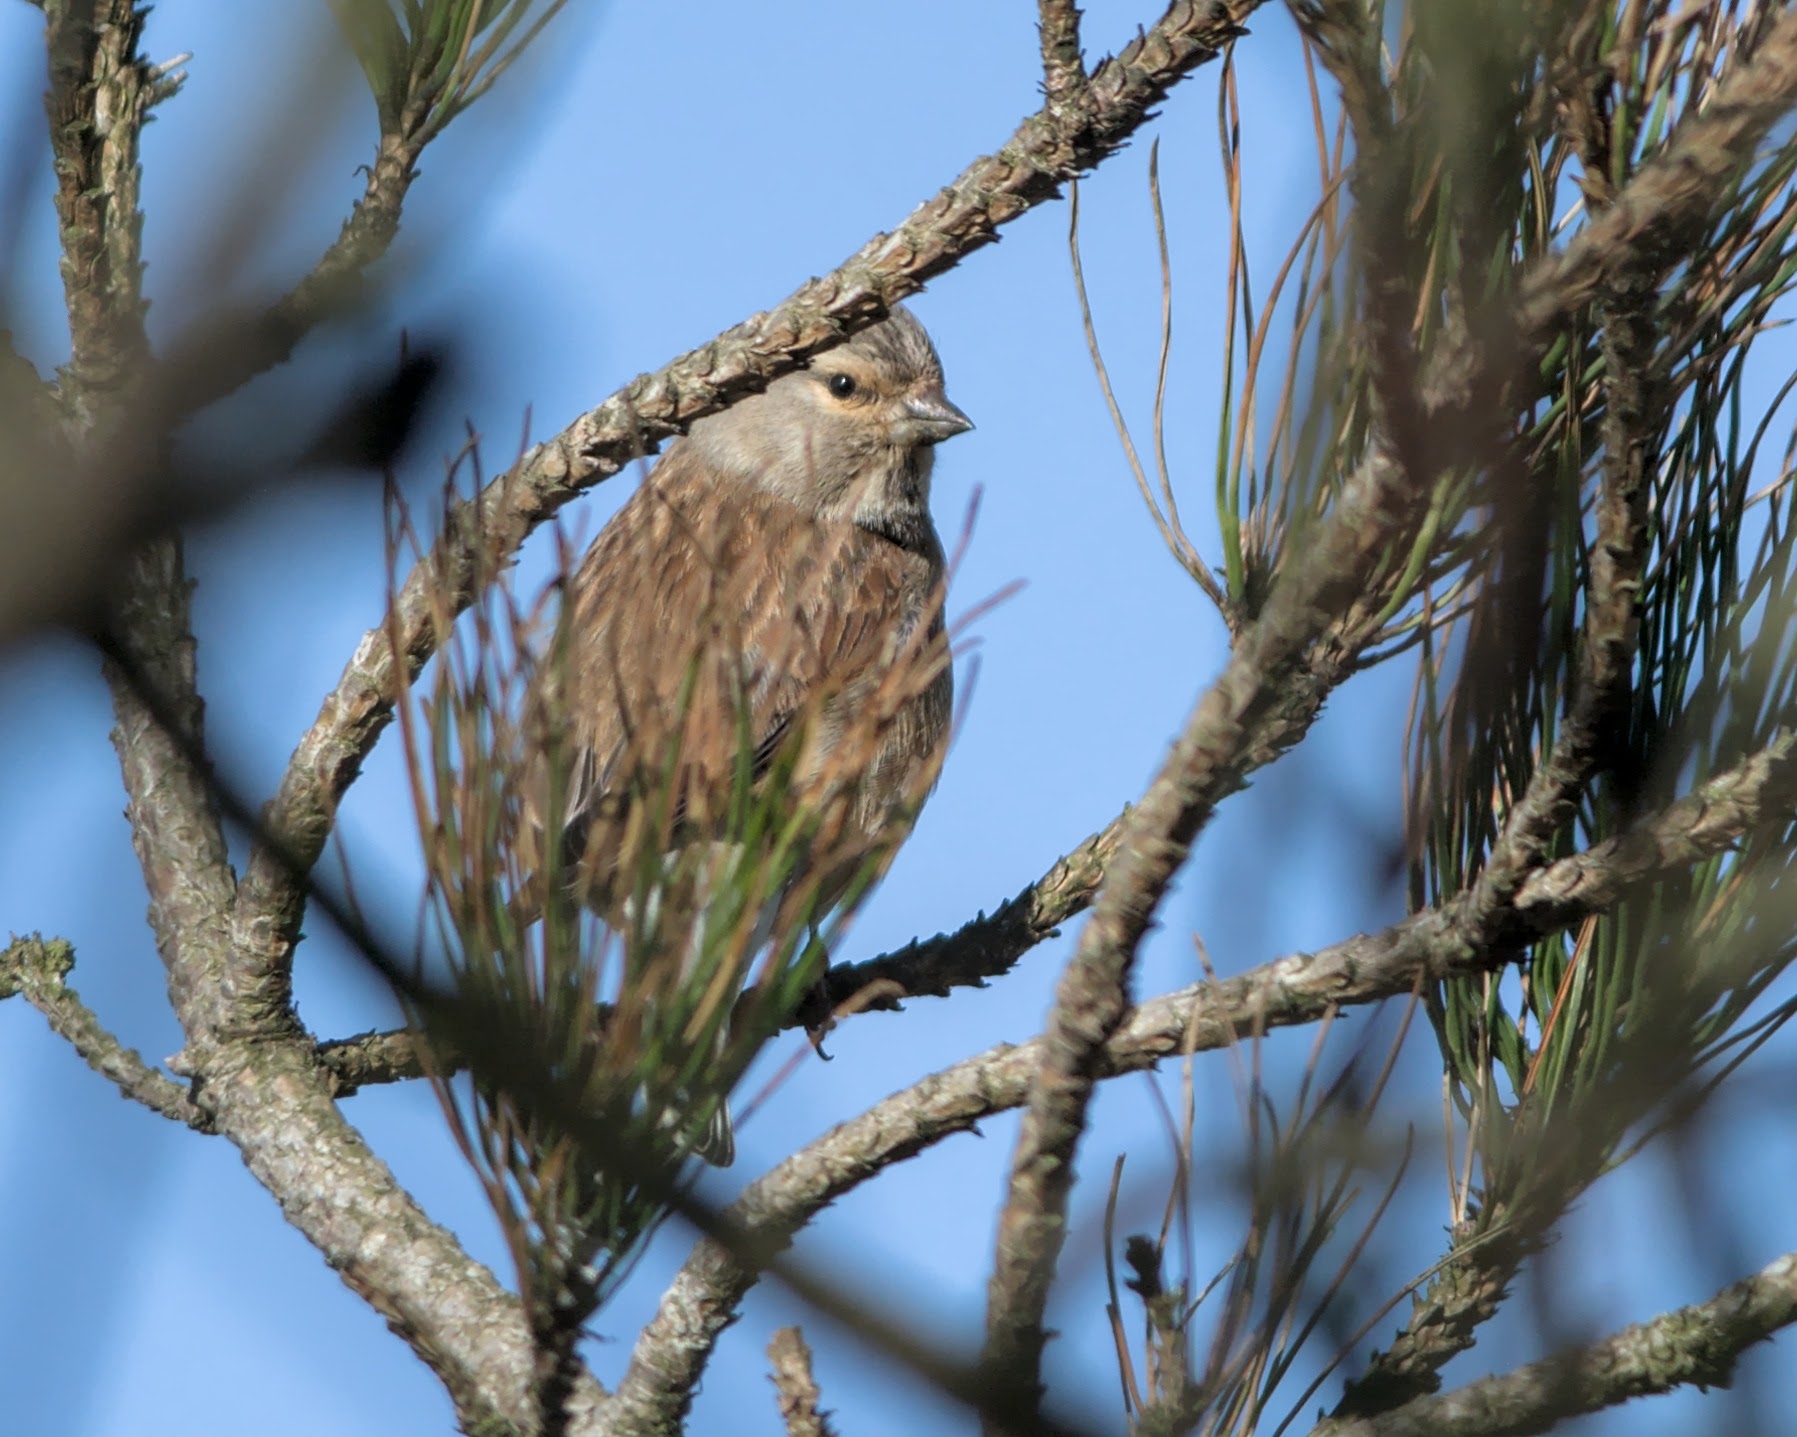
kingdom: Animalia
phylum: Chordata
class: Aves
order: Passeriformes
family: Fringillidae
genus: Linaria
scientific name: Linaria cannabina
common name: Common linnet
